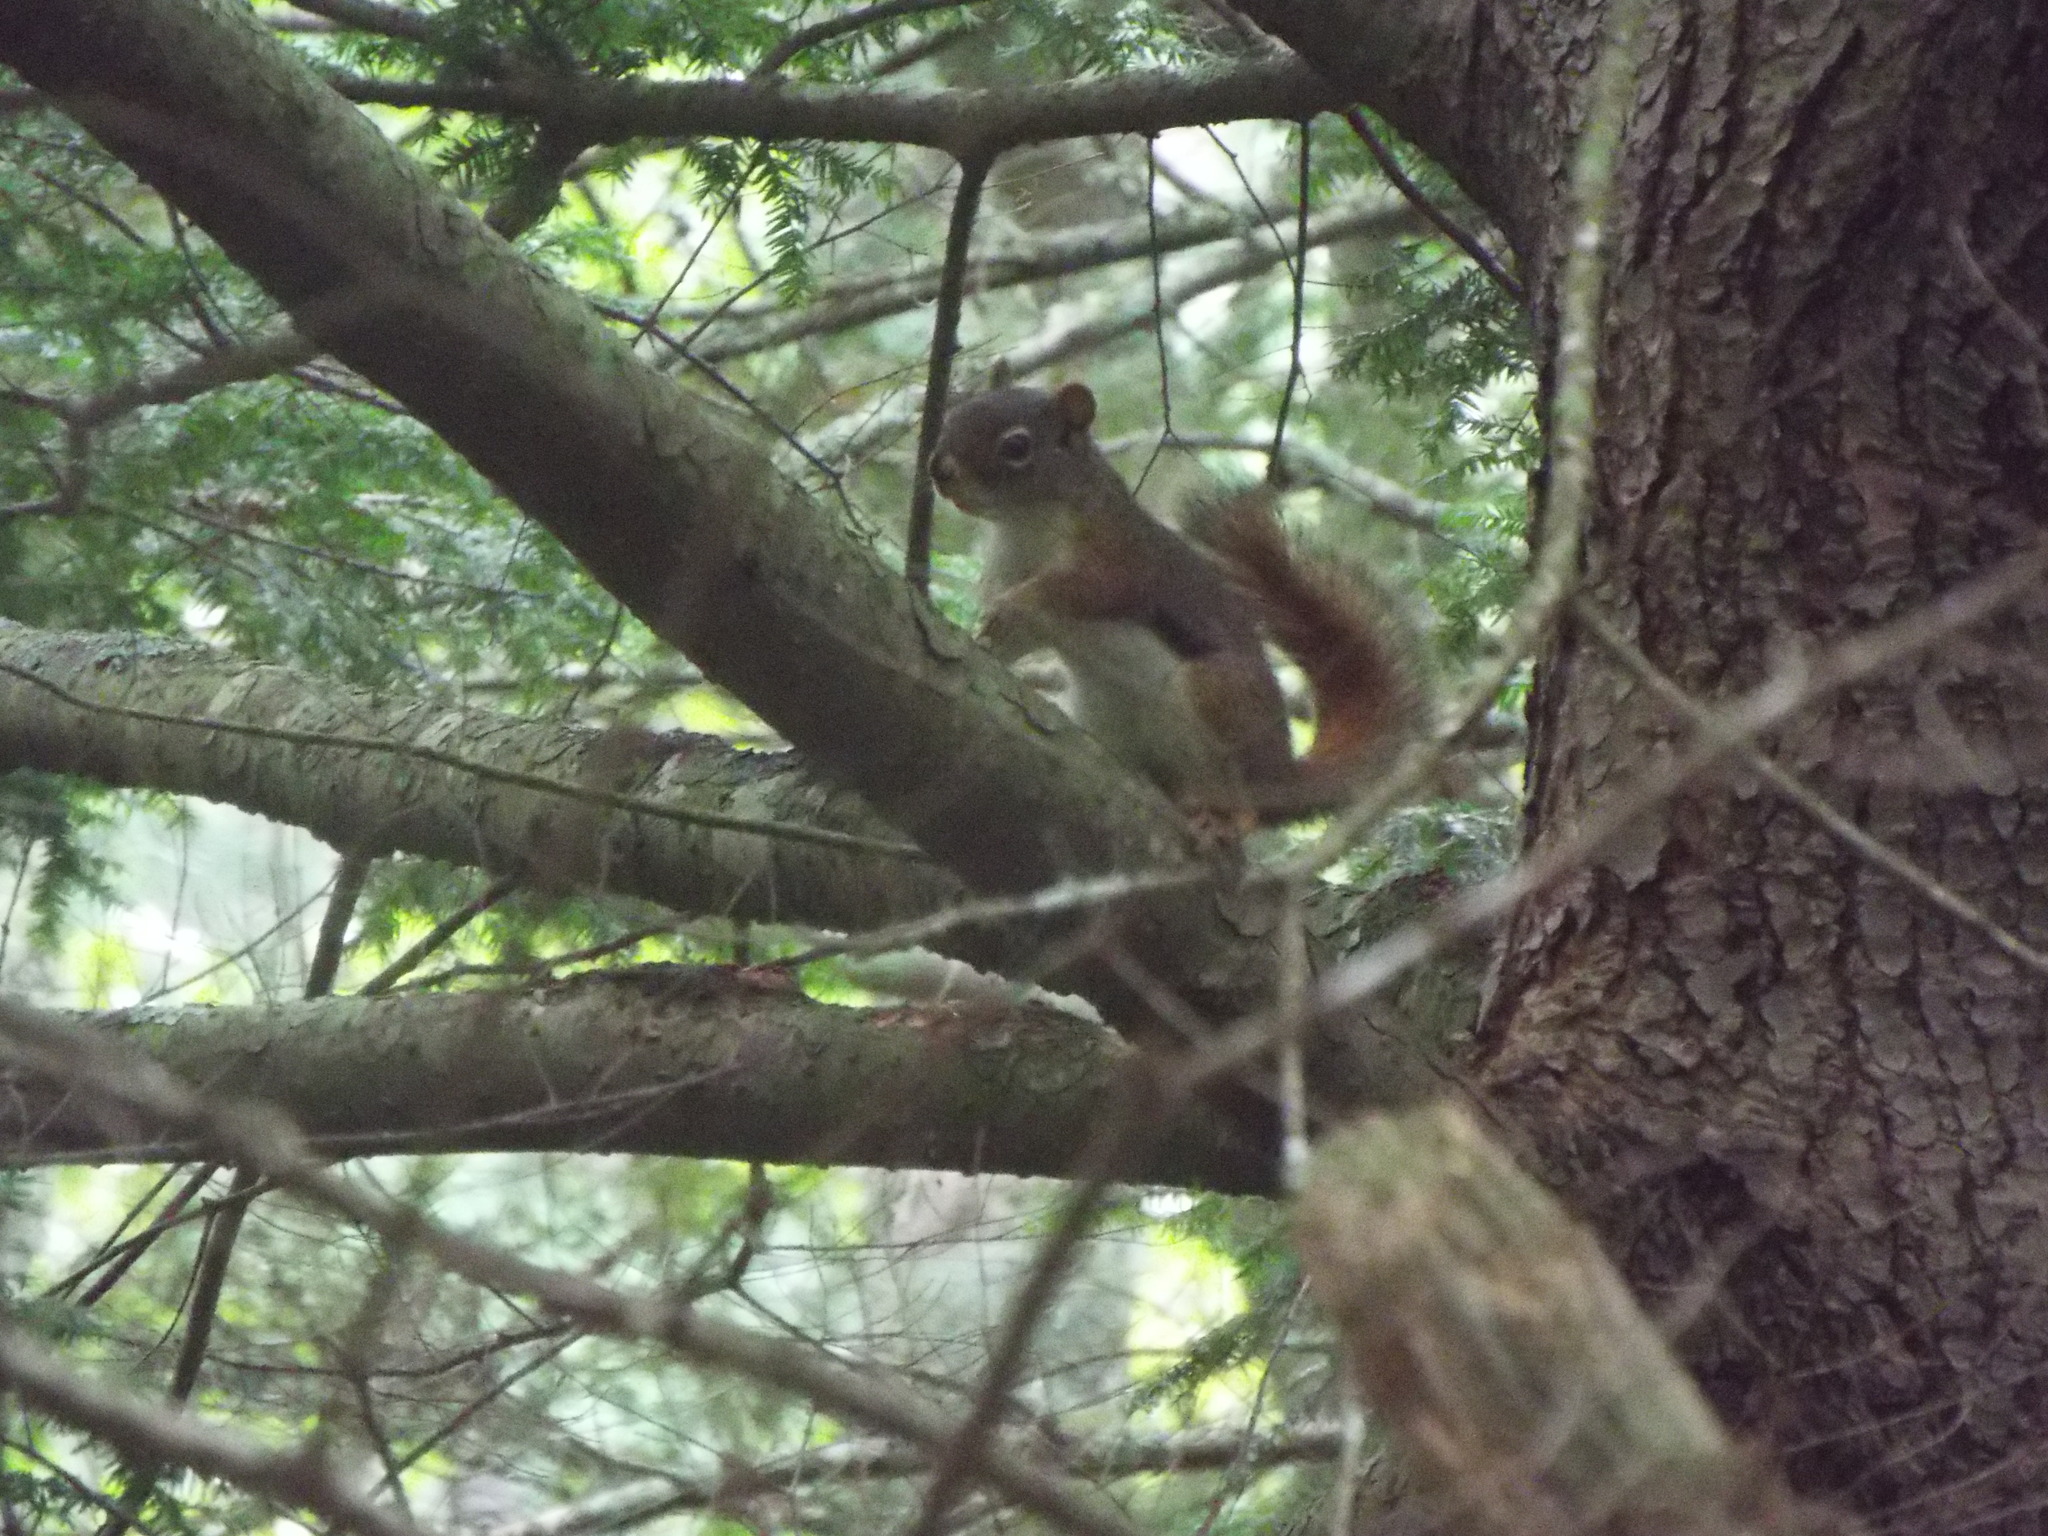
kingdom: Animalia
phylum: Chordata
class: Mammalia
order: Rodentia
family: Sciuridae
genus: Tamiasciurus
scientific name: Tamiasciurus hudsonicus
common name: Red squirrel
